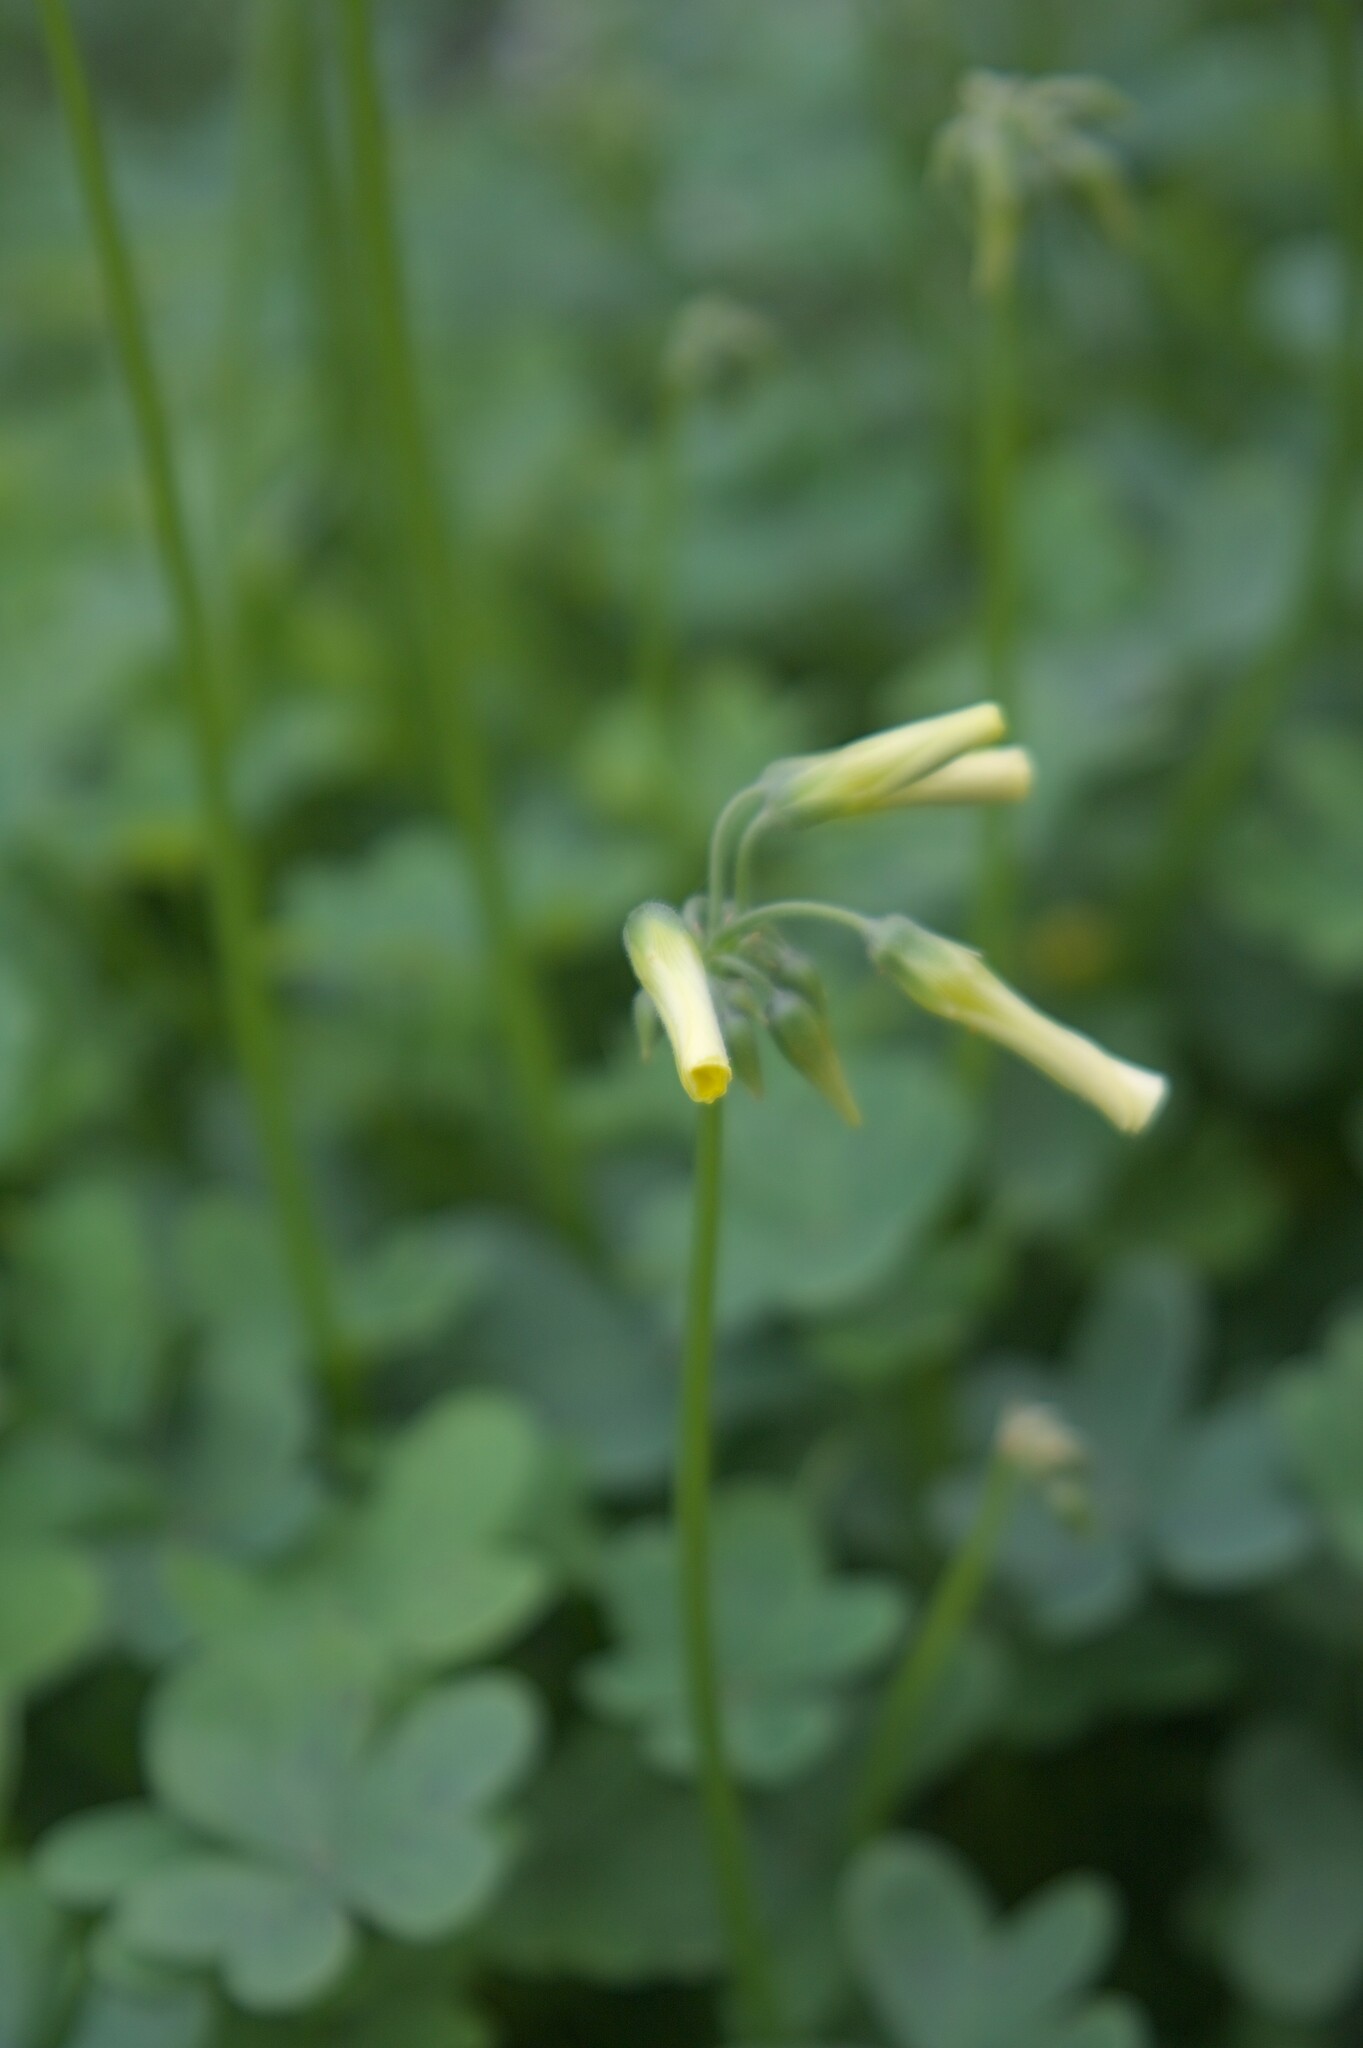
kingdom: Plantae
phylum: Tracheophyta
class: Magnoliopsida
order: Oxalidales
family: Oxalidaceae
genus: Oxalis
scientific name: Oxalis pes-caprae
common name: Bermuda-buttercup
